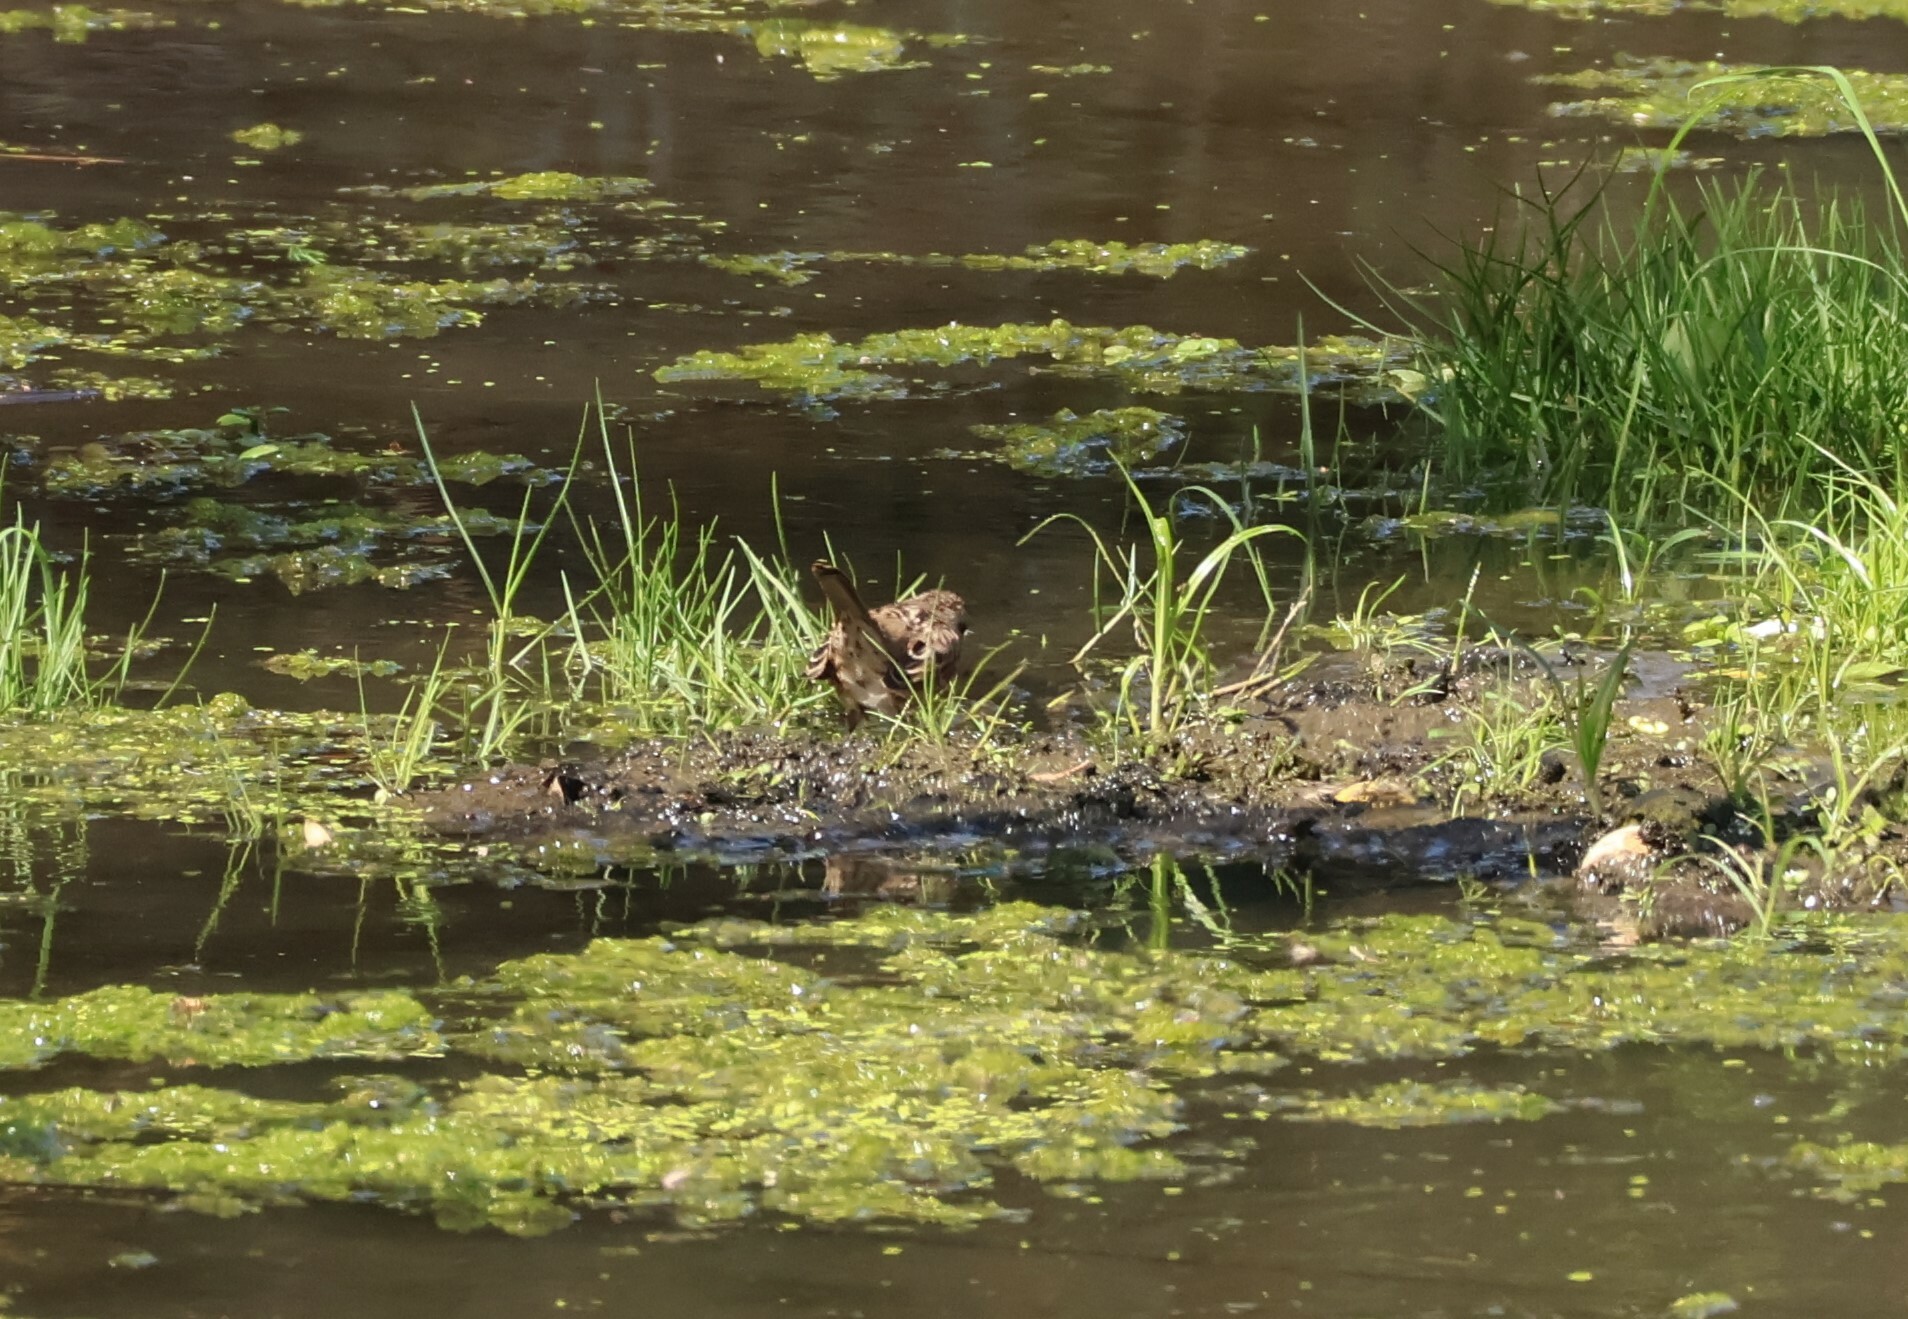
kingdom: Animalia
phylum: Chordata
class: Aves
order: Passeriformes
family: Passerellidae
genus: Melospiza
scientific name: Melospiza melodia
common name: Song sparrow
